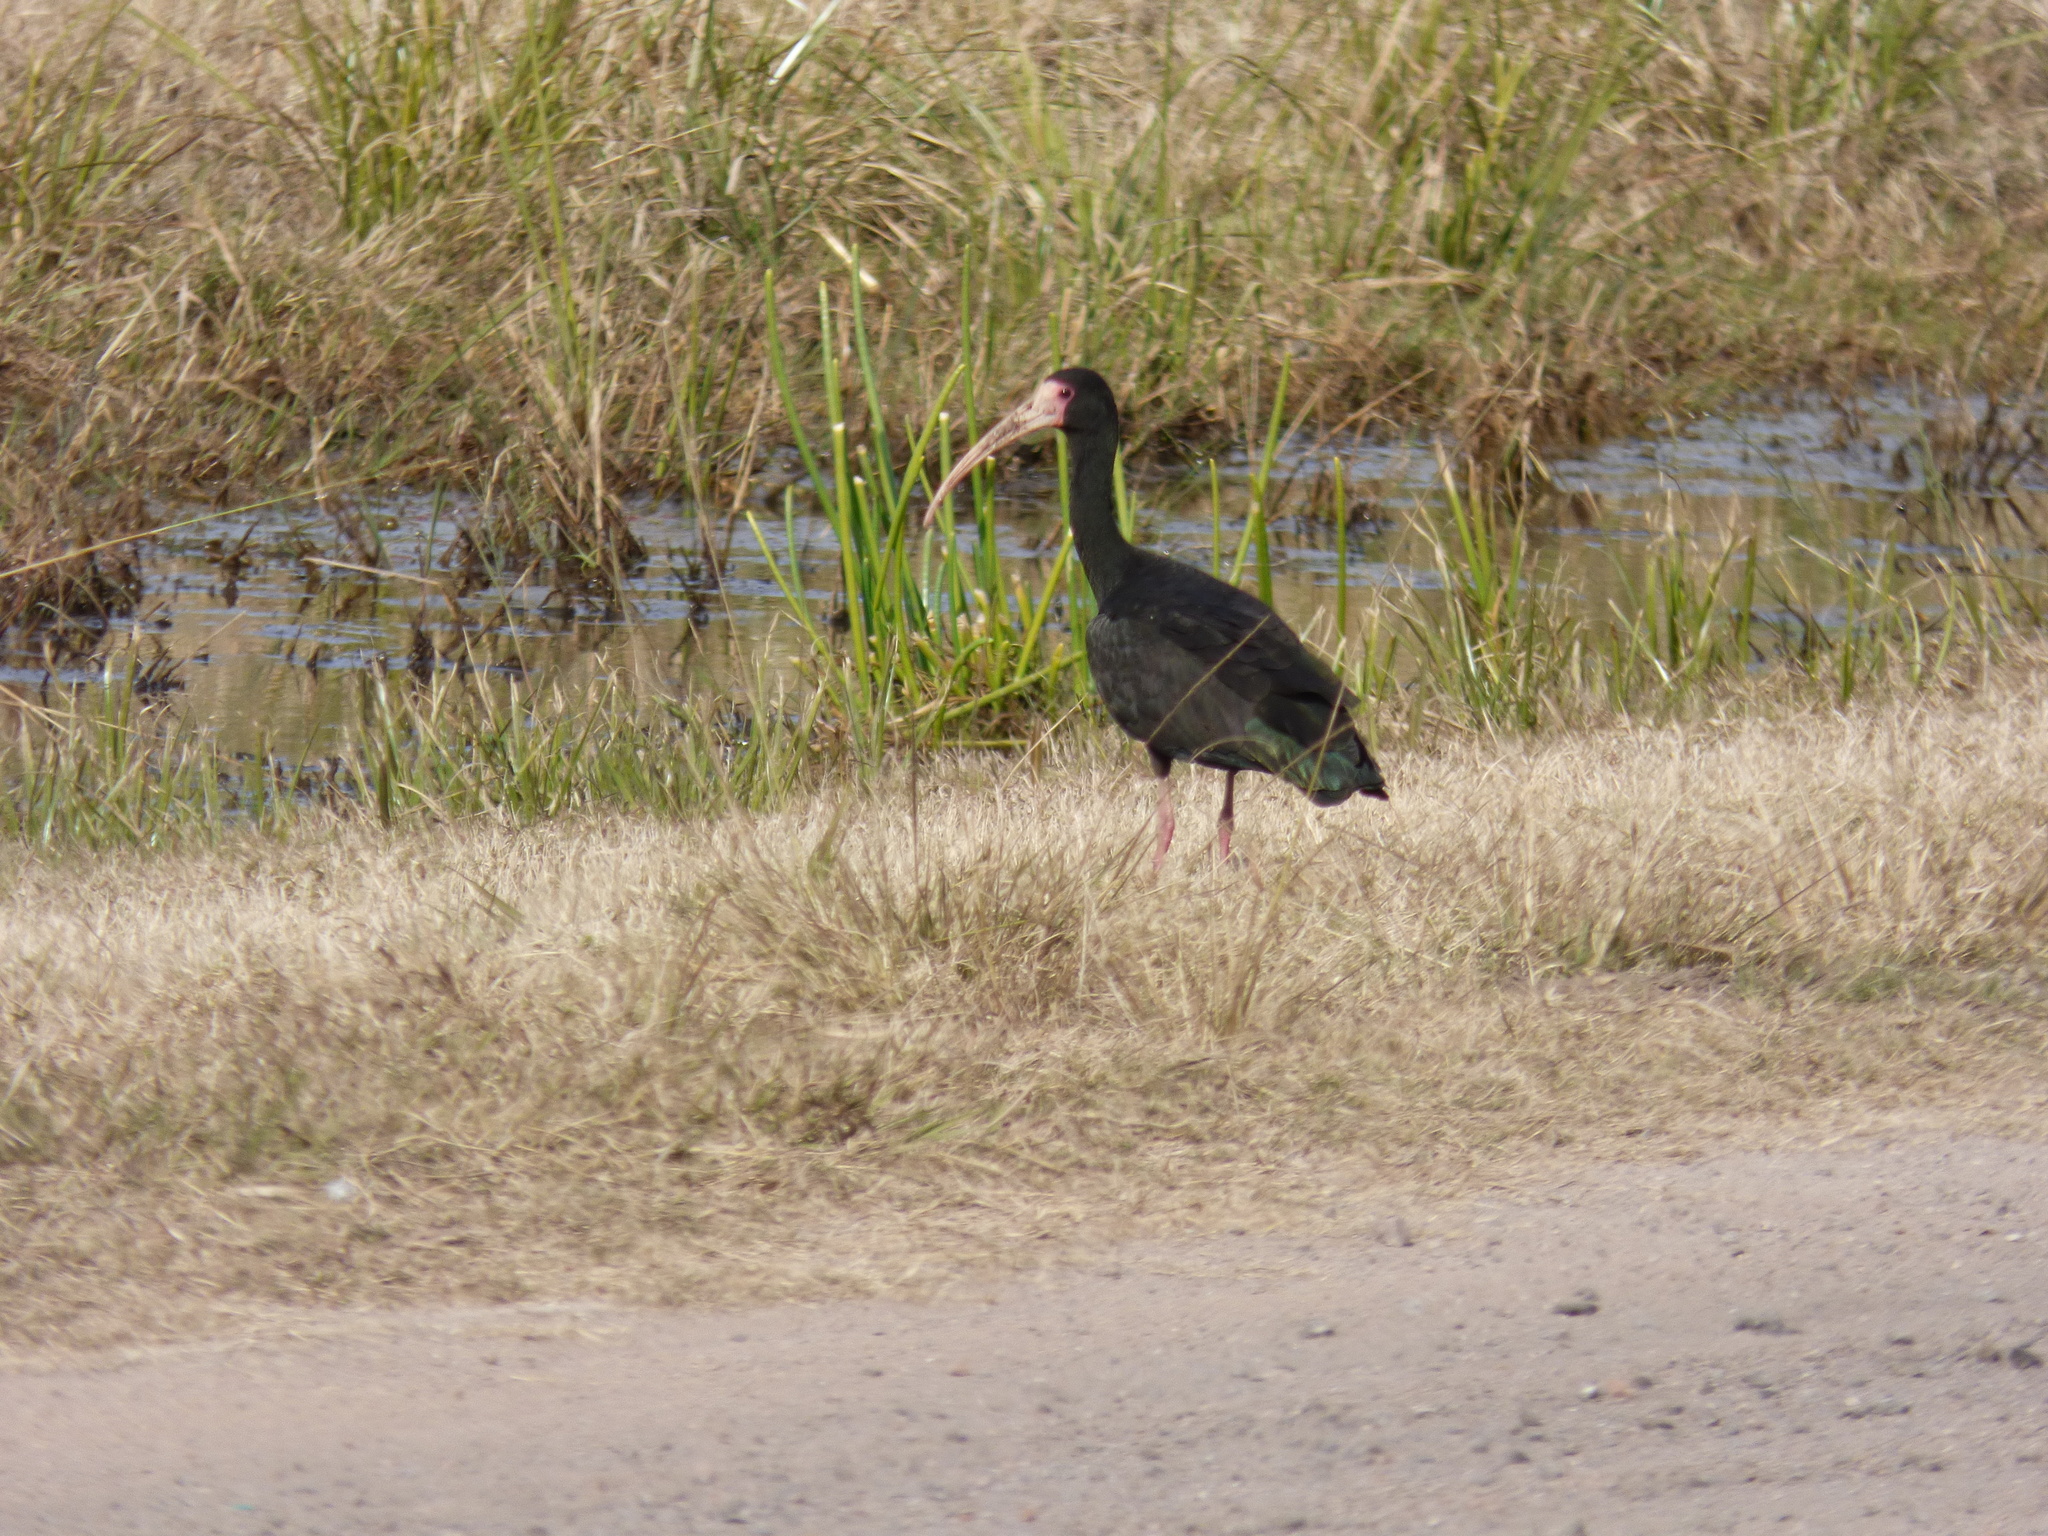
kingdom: Animalia
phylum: Chordata
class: Aves
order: Pelecaniformes
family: Threskiornithidae
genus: Phimosus
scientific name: Phimosus infuscatus
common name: Bare-faced ibis
